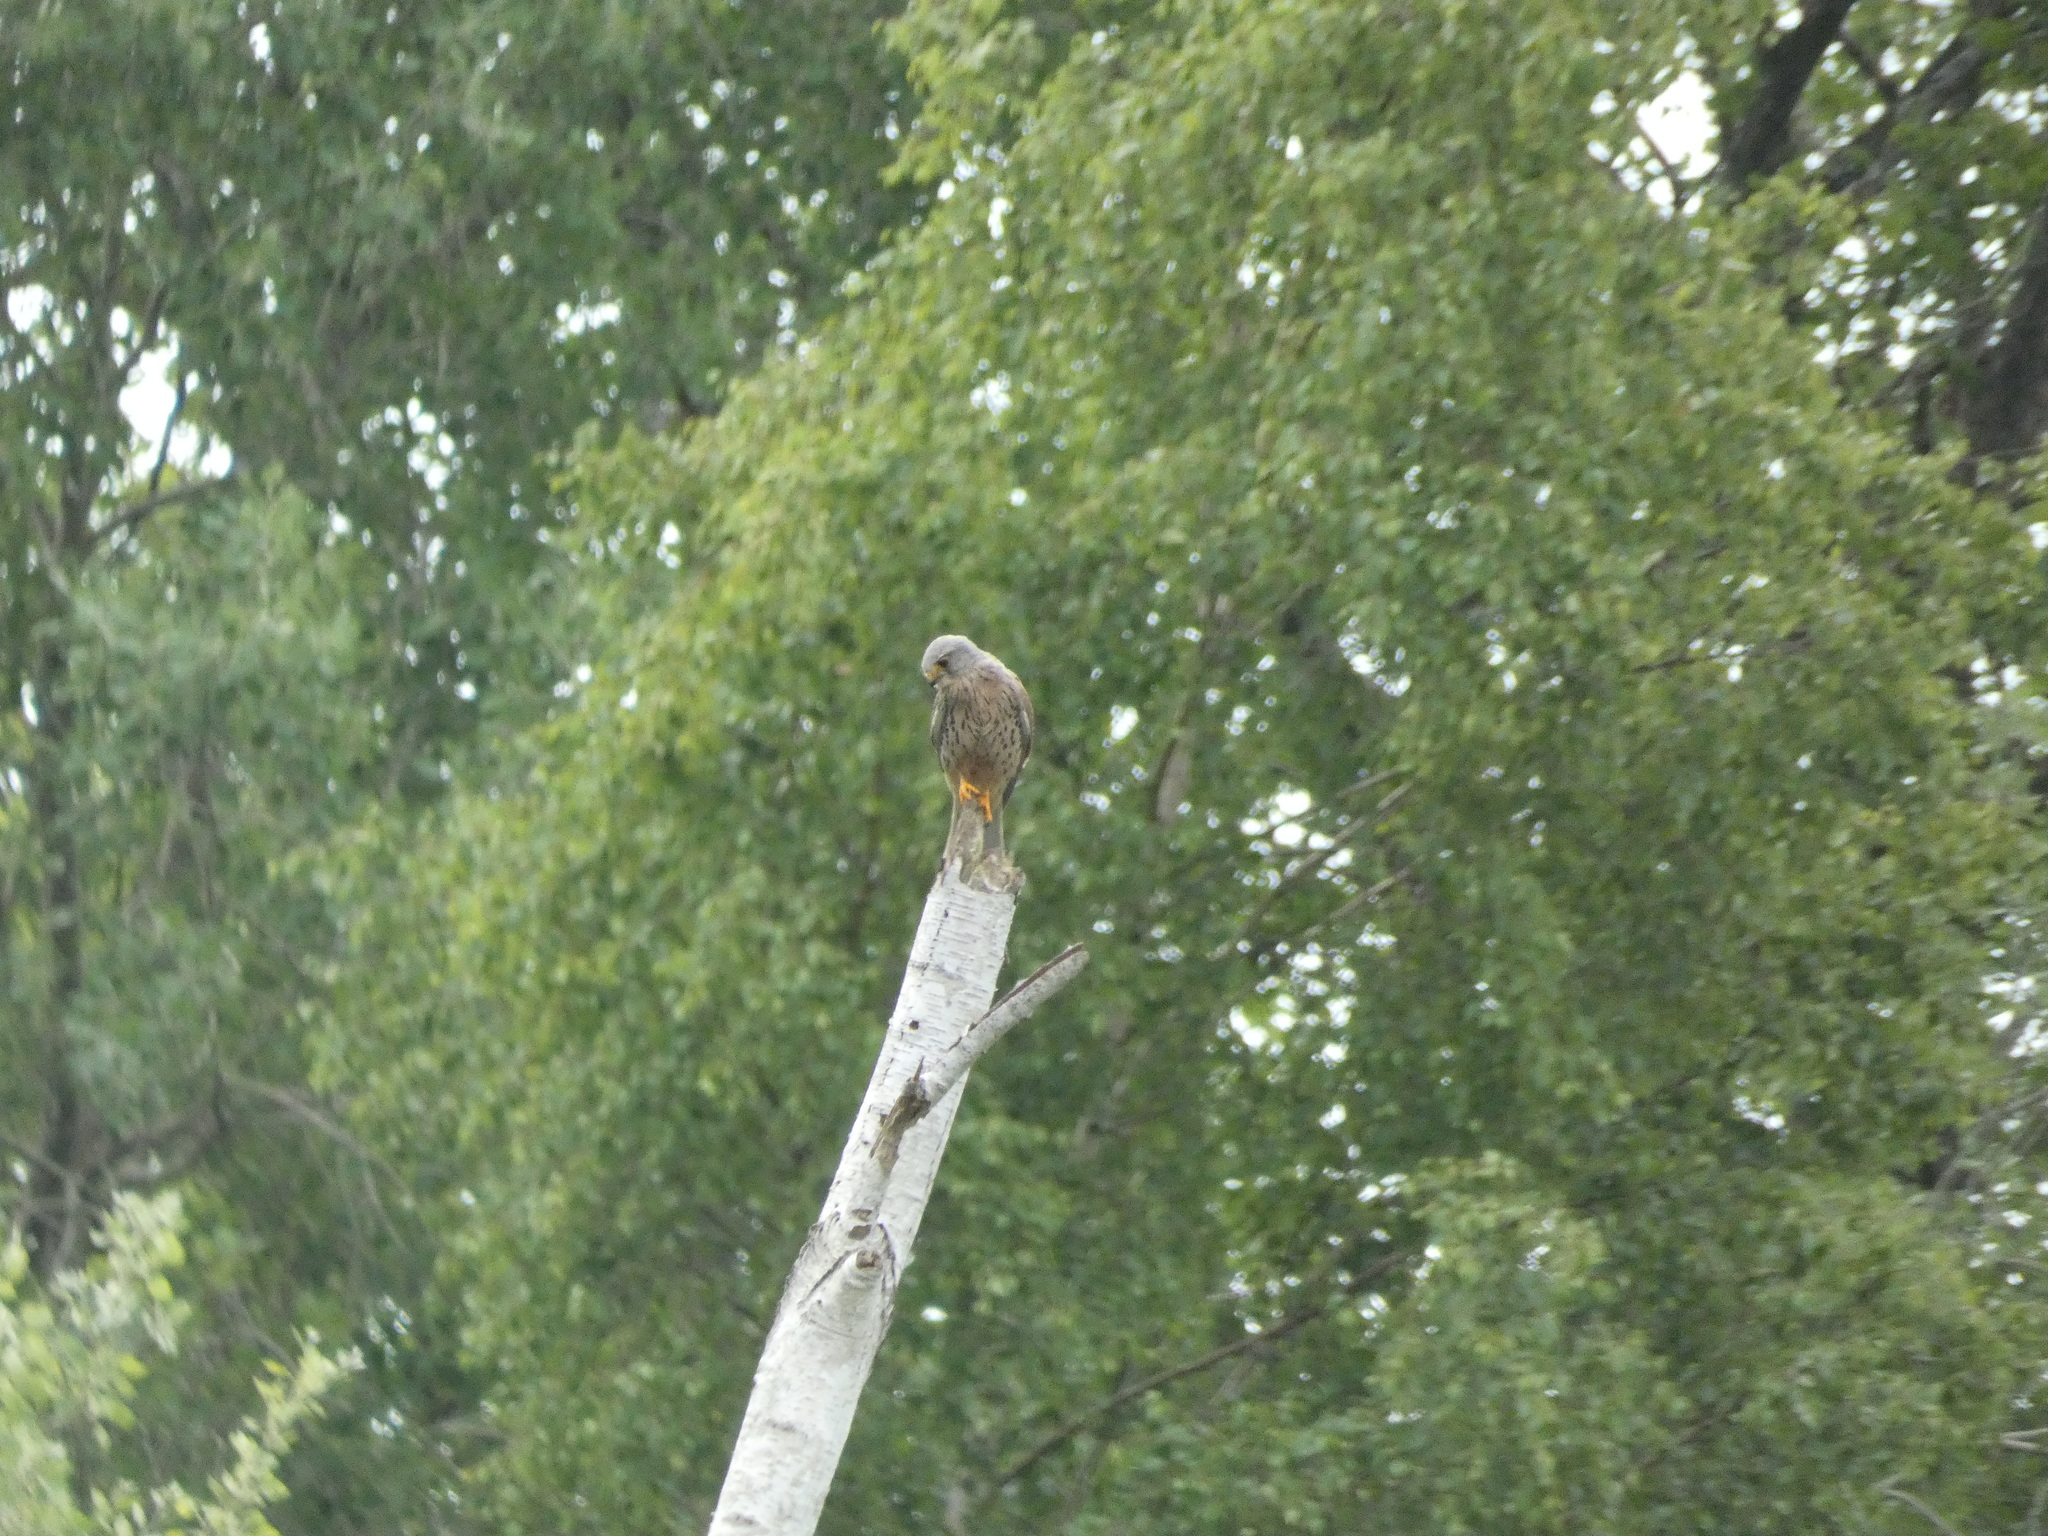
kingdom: Animalia
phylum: Chordata
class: Aves
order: Falconiformes
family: Falconidae
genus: Falco
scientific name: Falco tinnunculus
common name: Common kestrel
